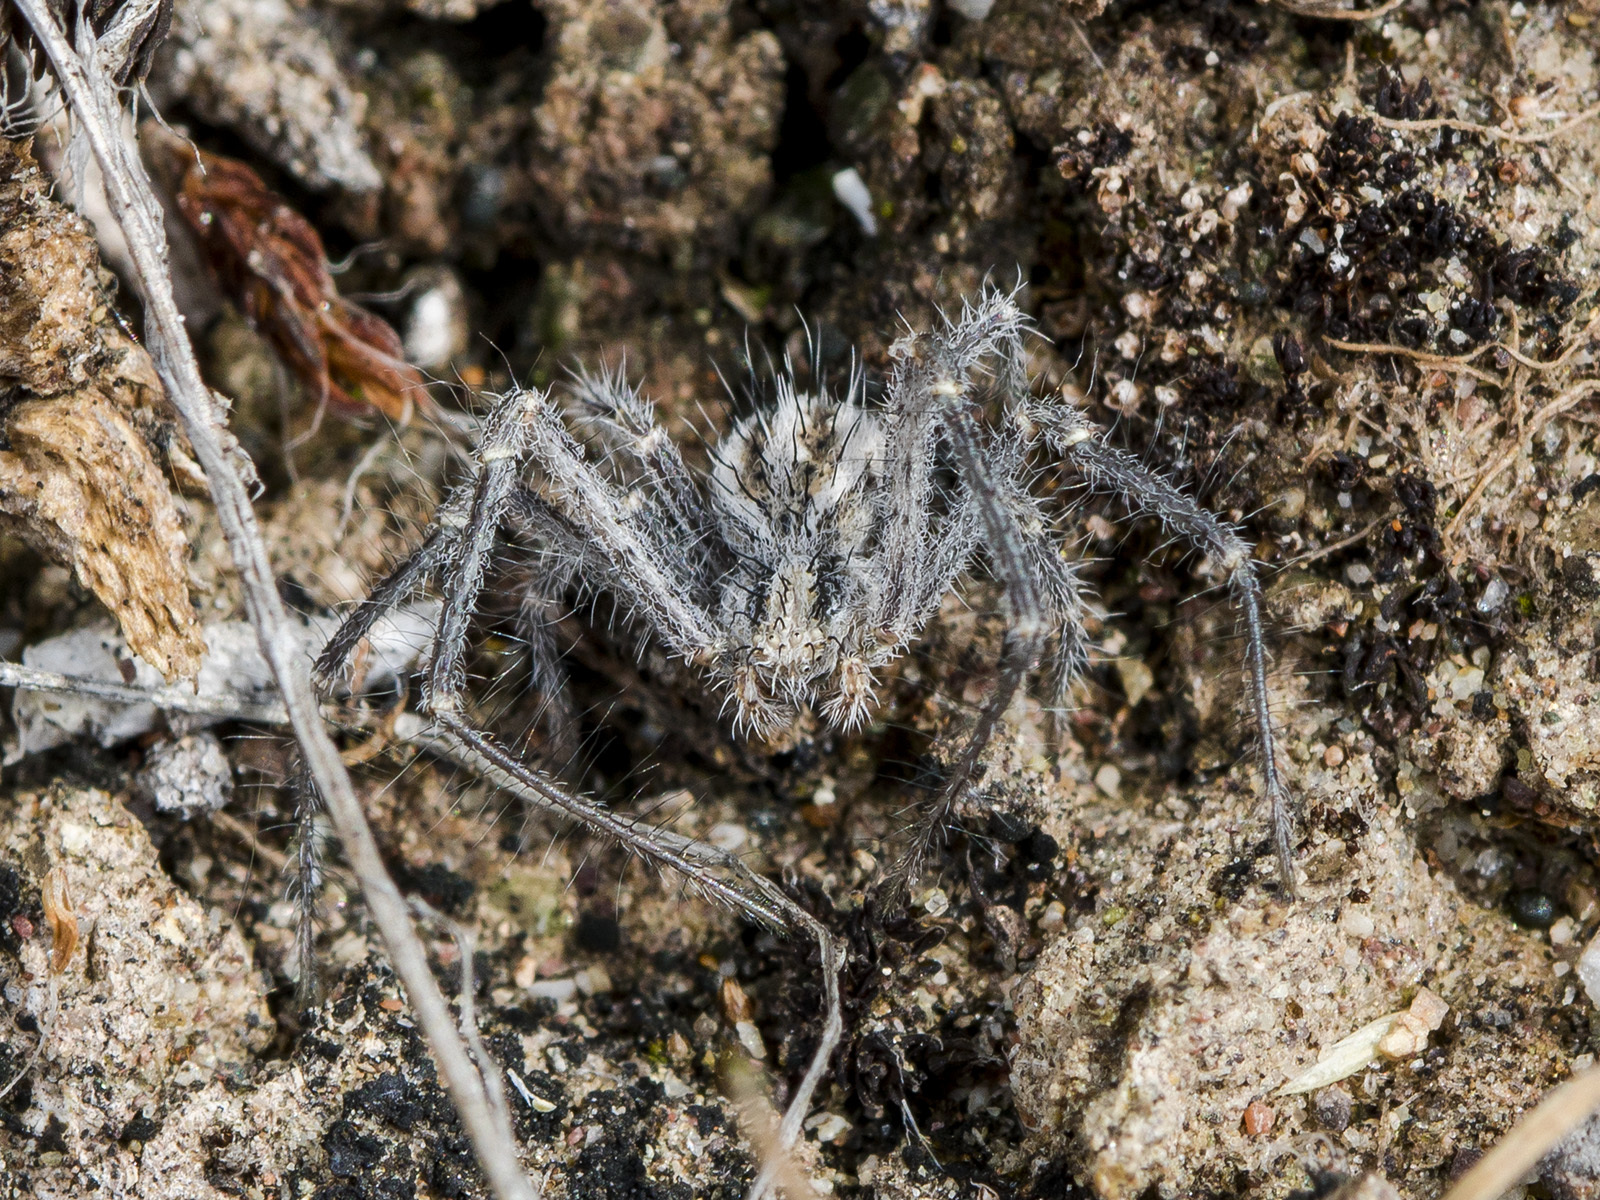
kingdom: Animalia
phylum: Arthropoda
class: Arachnida
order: Araneae
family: Thomisidae
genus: Heriaeus
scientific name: Heriaeus horridus
